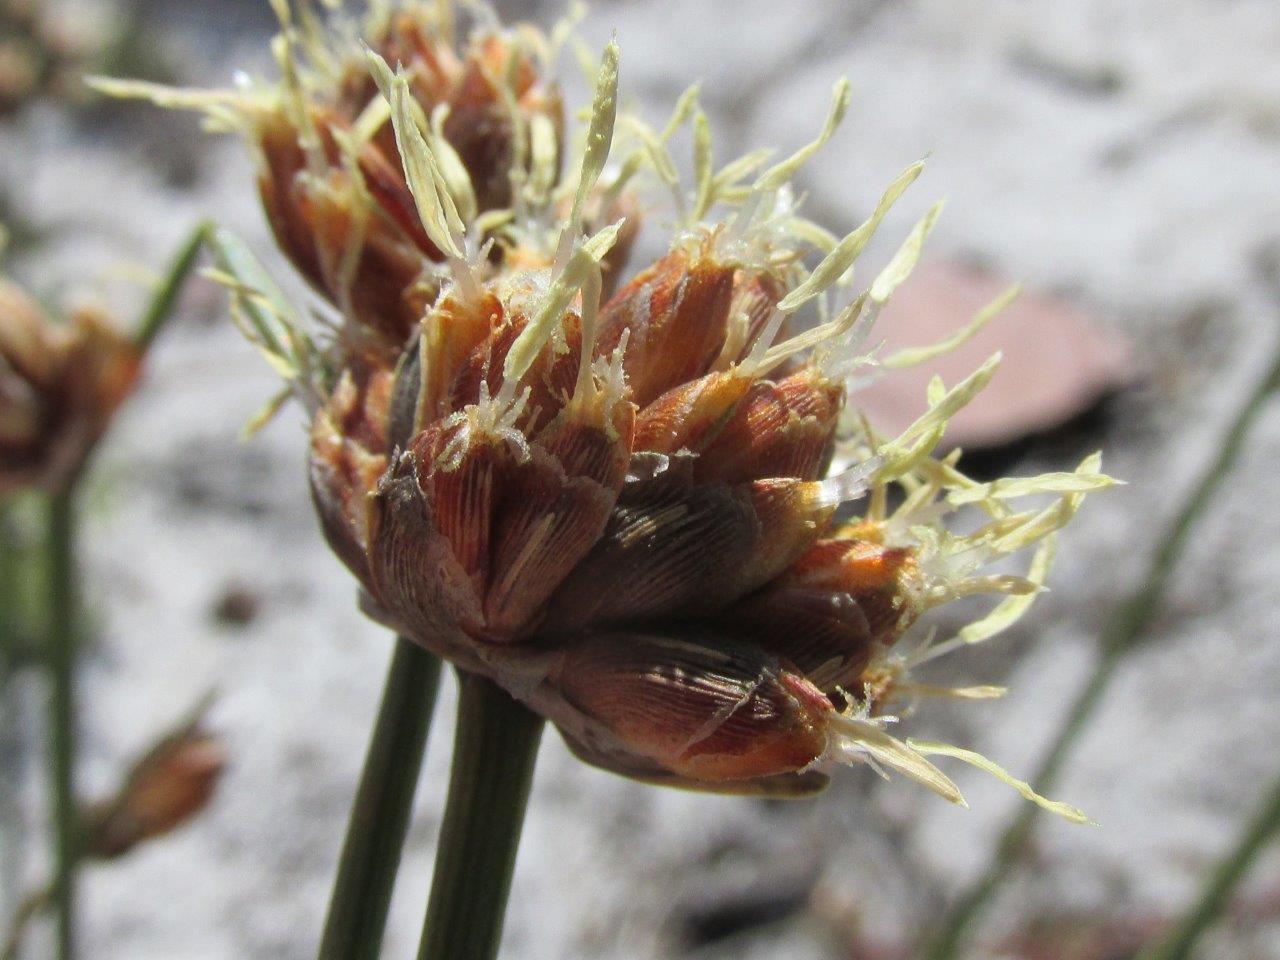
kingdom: Plantae
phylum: Tracheophyta
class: Liliopsida
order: Poales
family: Cyperaceae
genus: Ficinia
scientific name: Ficinia pinguior
